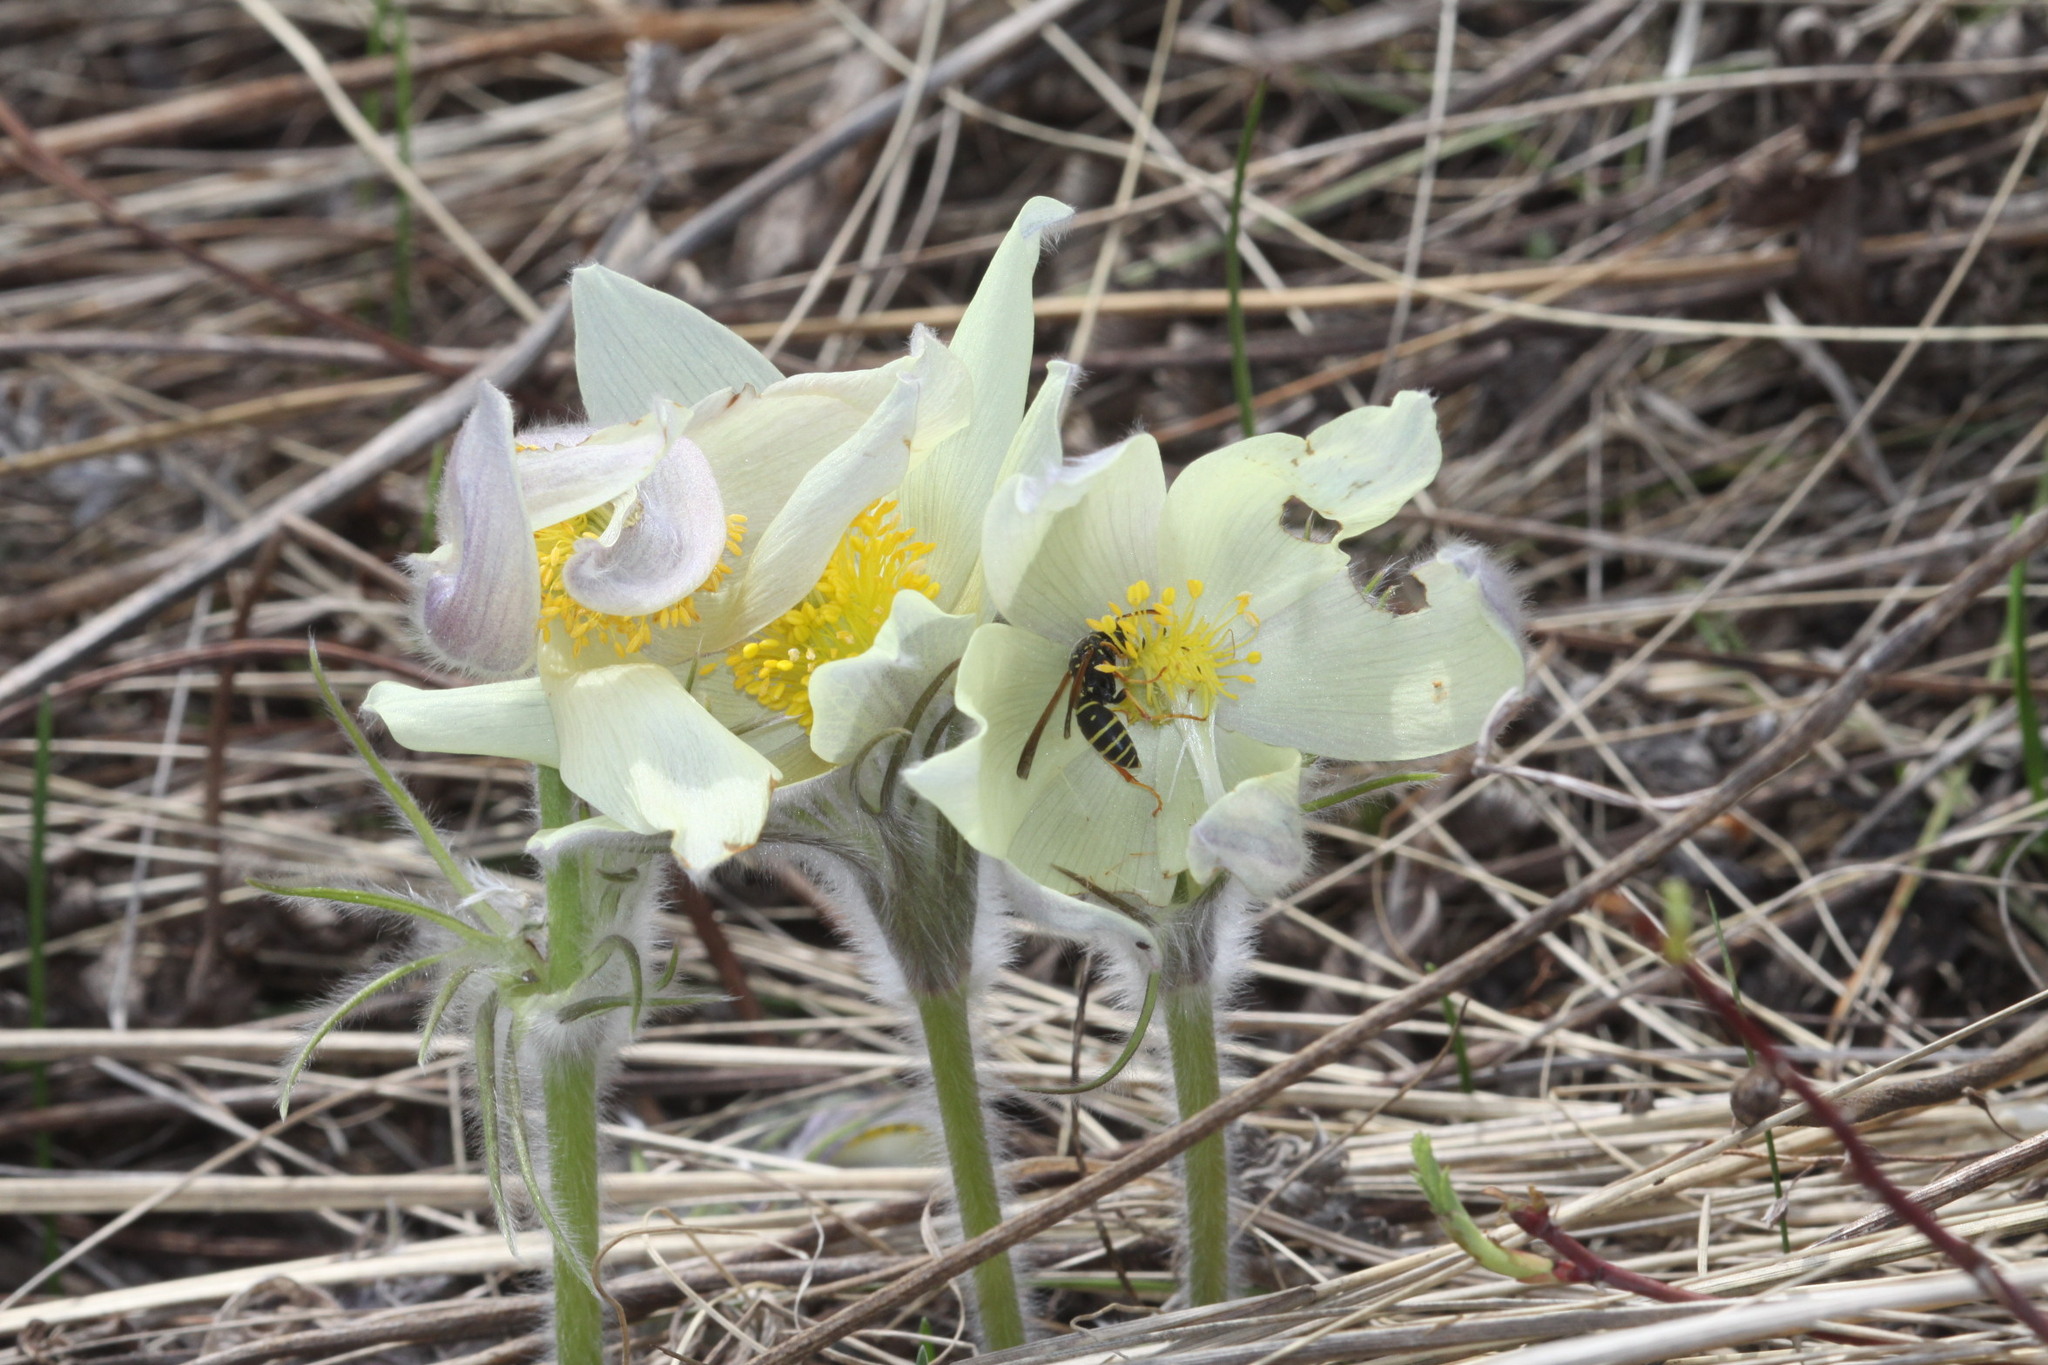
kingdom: Plantae
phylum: Tracheophyta
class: Magnoliopsida
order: Ranunculales
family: Ranunculaceae
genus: Pulsatilla
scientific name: Pulsatilla patens
